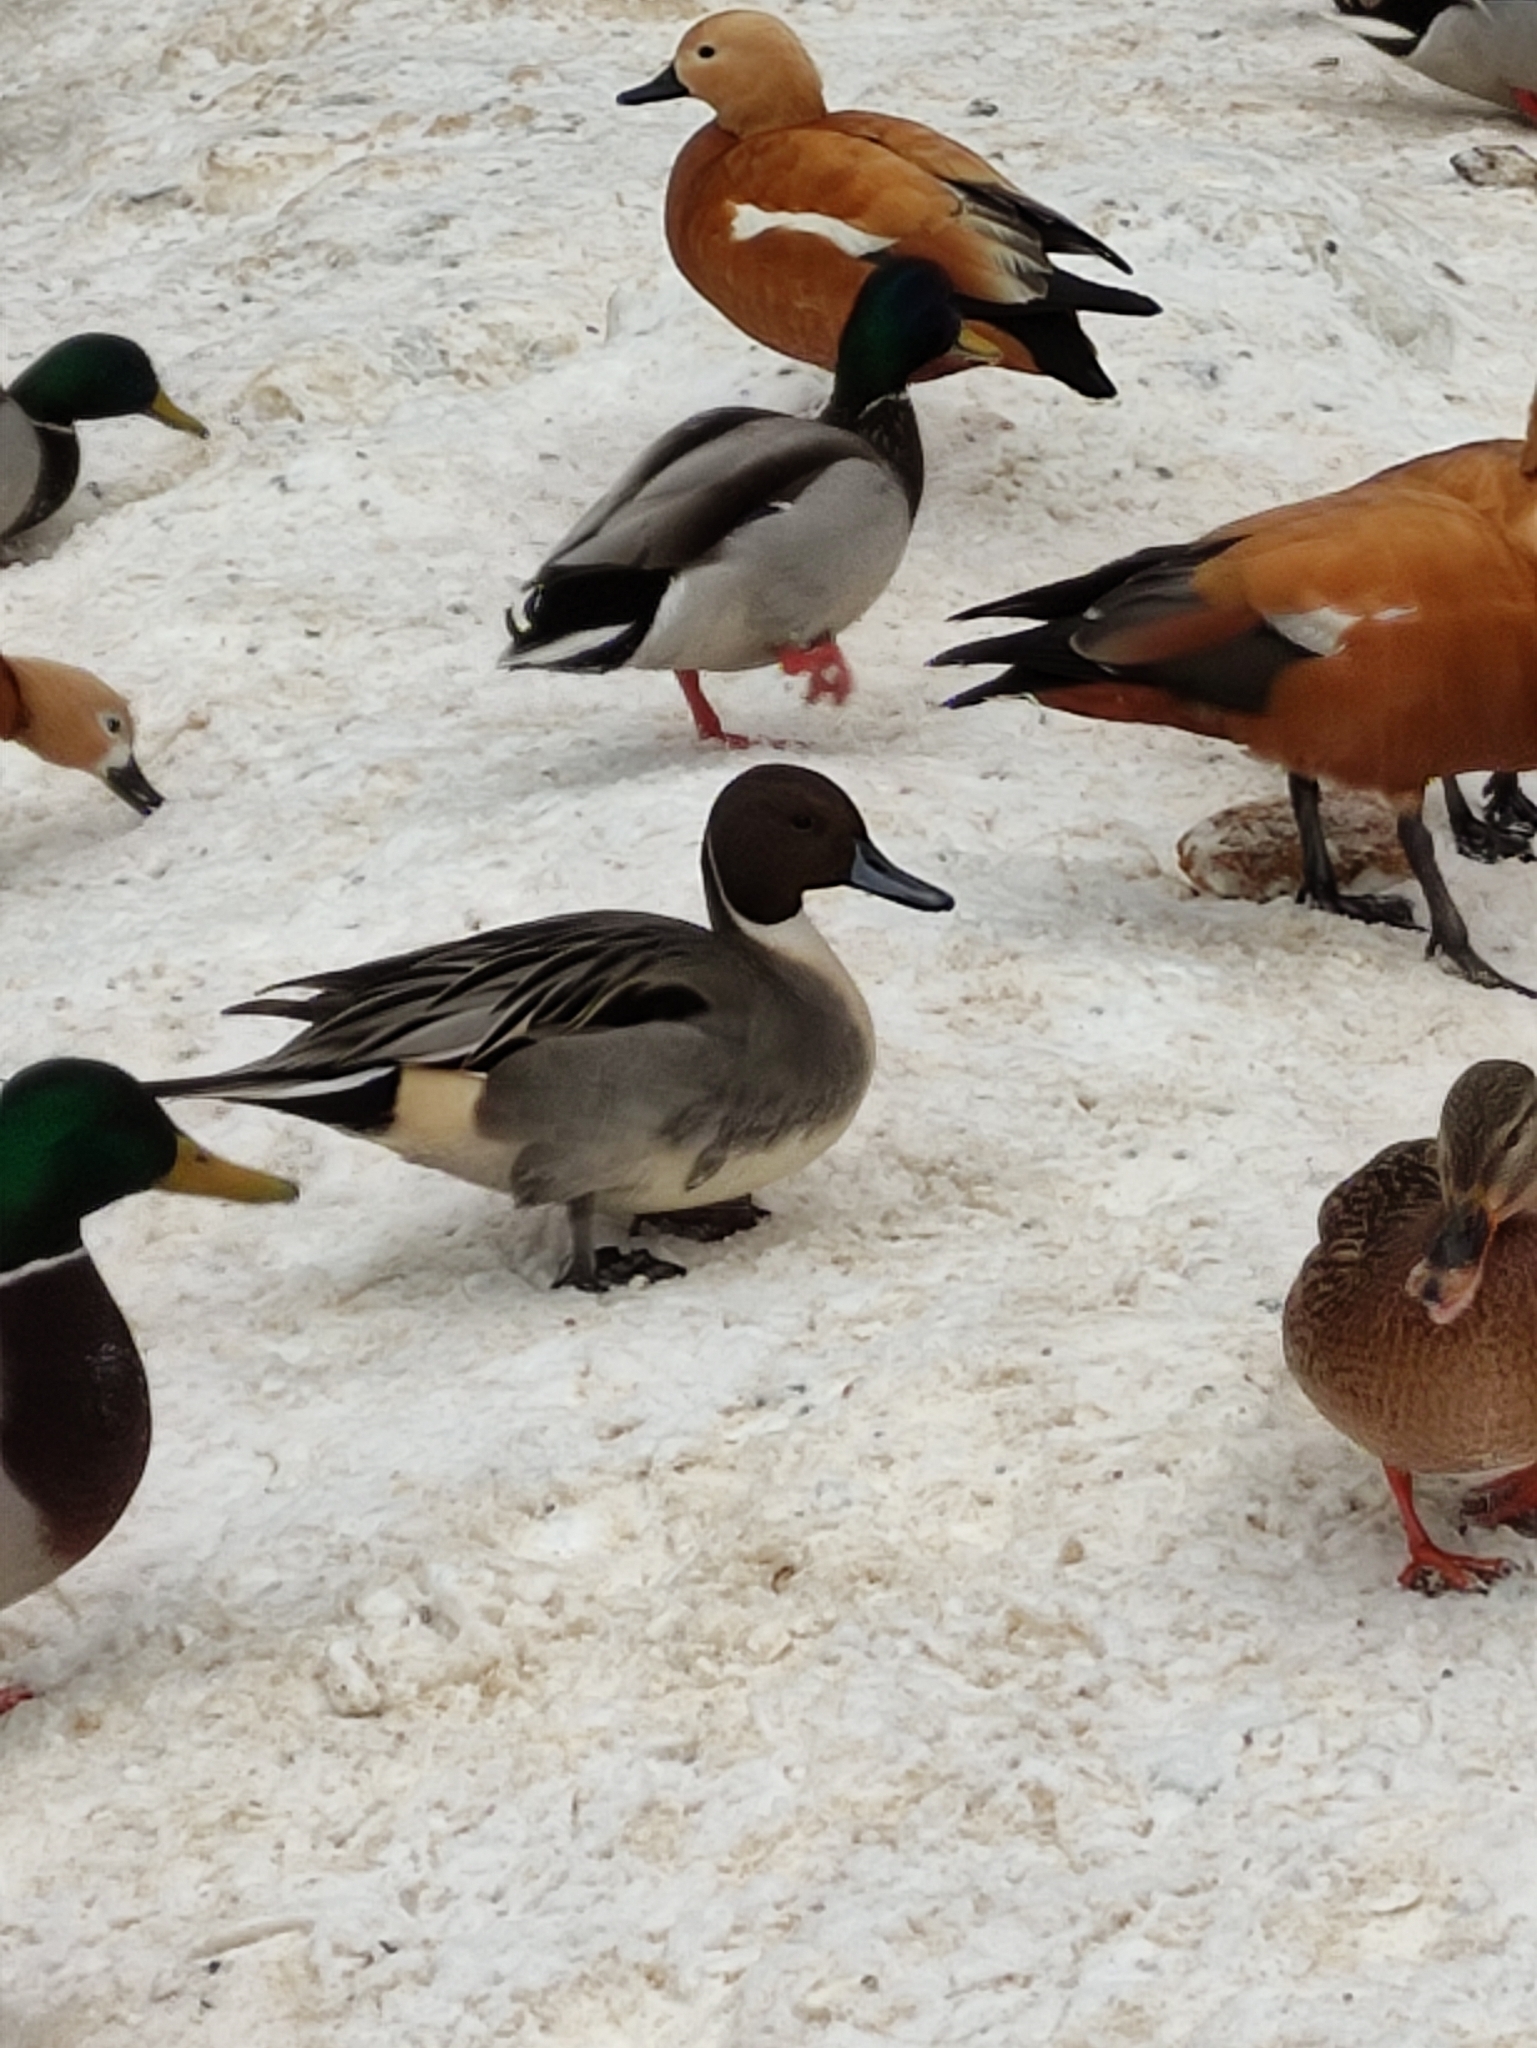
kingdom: Animalia
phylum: Chordata
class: Aves
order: Anseriformes
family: Anatidae
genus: Anas
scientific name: Anas acuta
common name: Northern pintail
